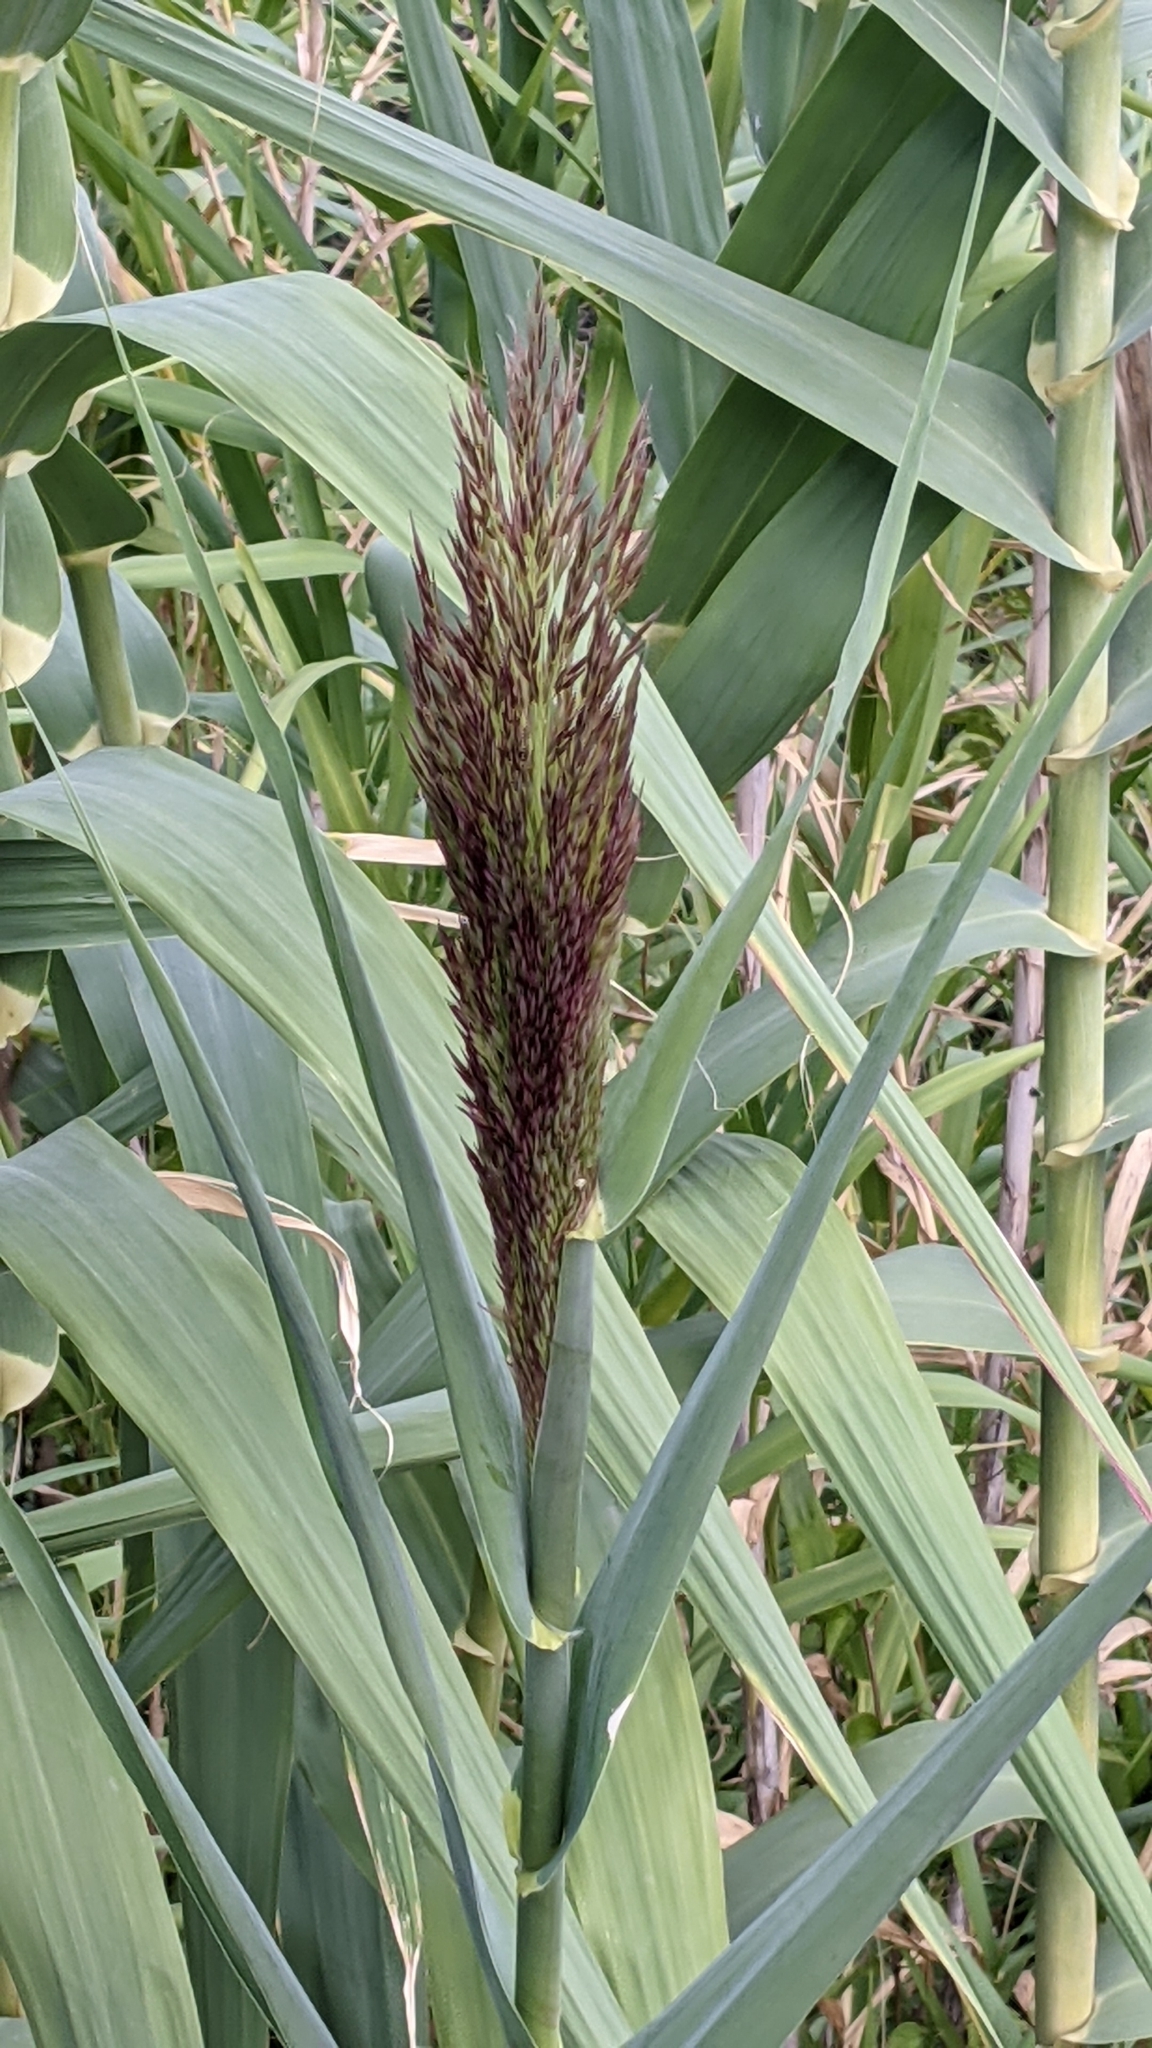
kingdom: Plantae
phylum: Tracheophyta
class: Liliopsida
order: Poales
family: Poaceae
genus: Arundo
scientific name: Arundo donax
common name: Giant reed
